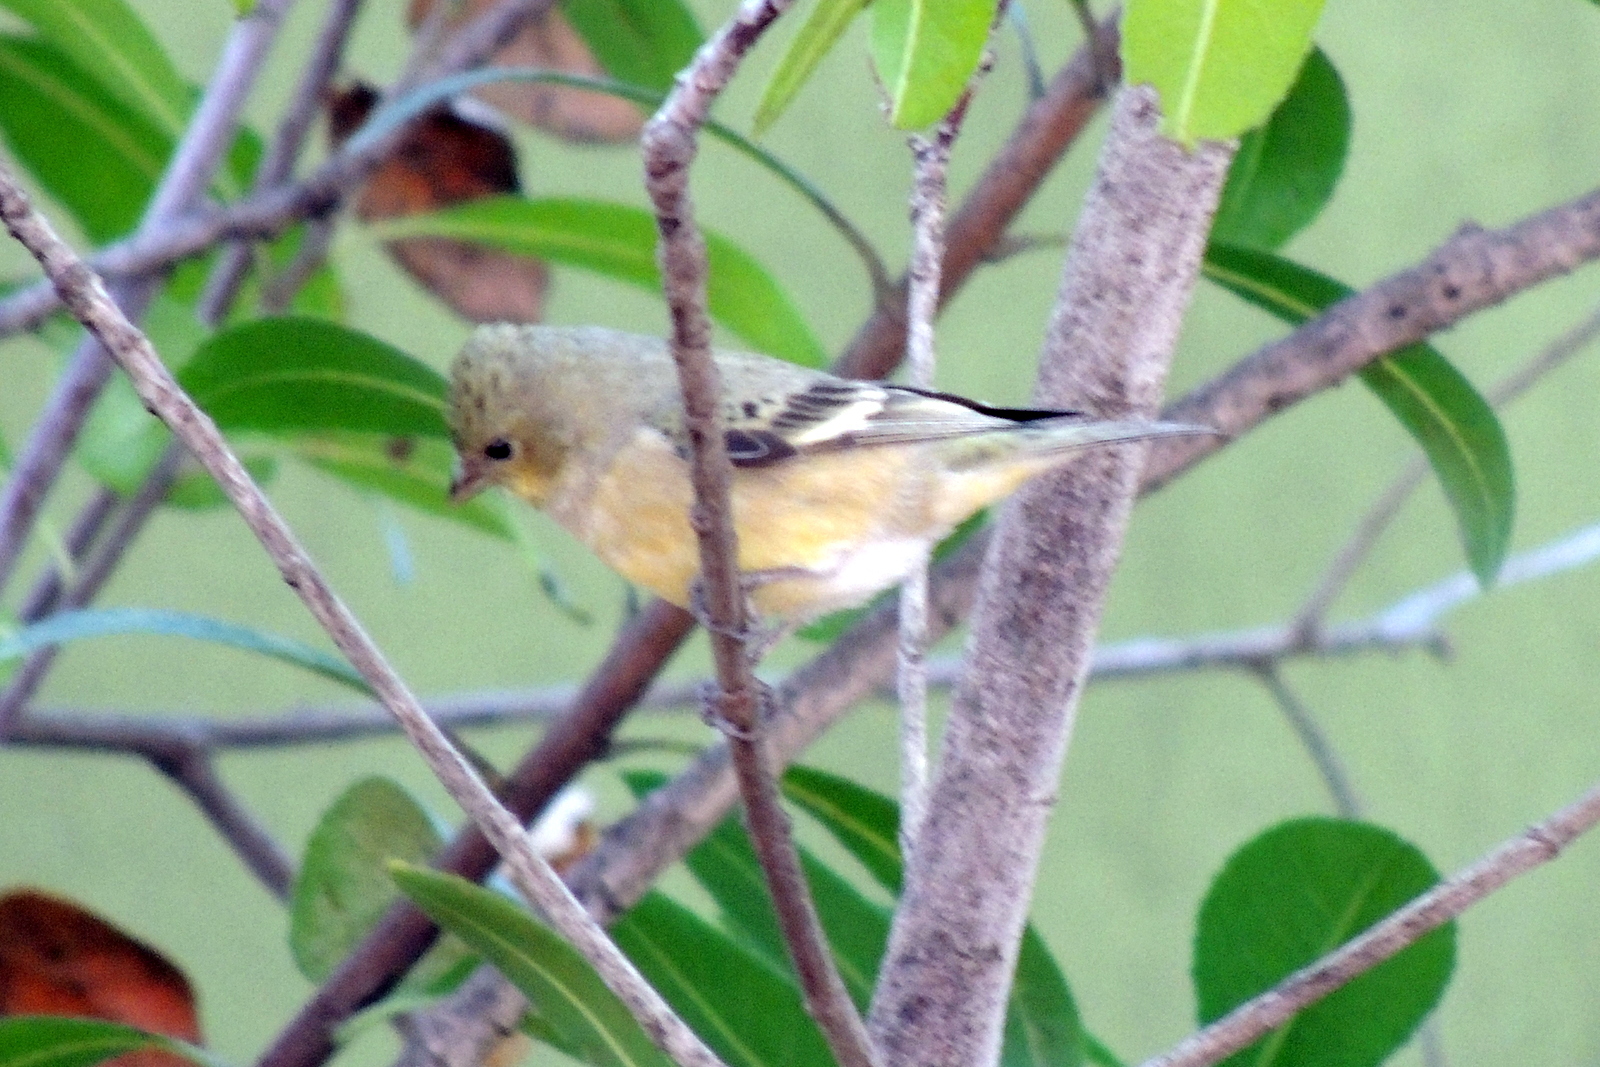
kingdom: Animalia
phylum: Chordata
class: Aves
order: Passeriformes
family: Fringillidae
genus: Spinus
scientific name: Spinus psaltria
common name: Lesser goldfinch
